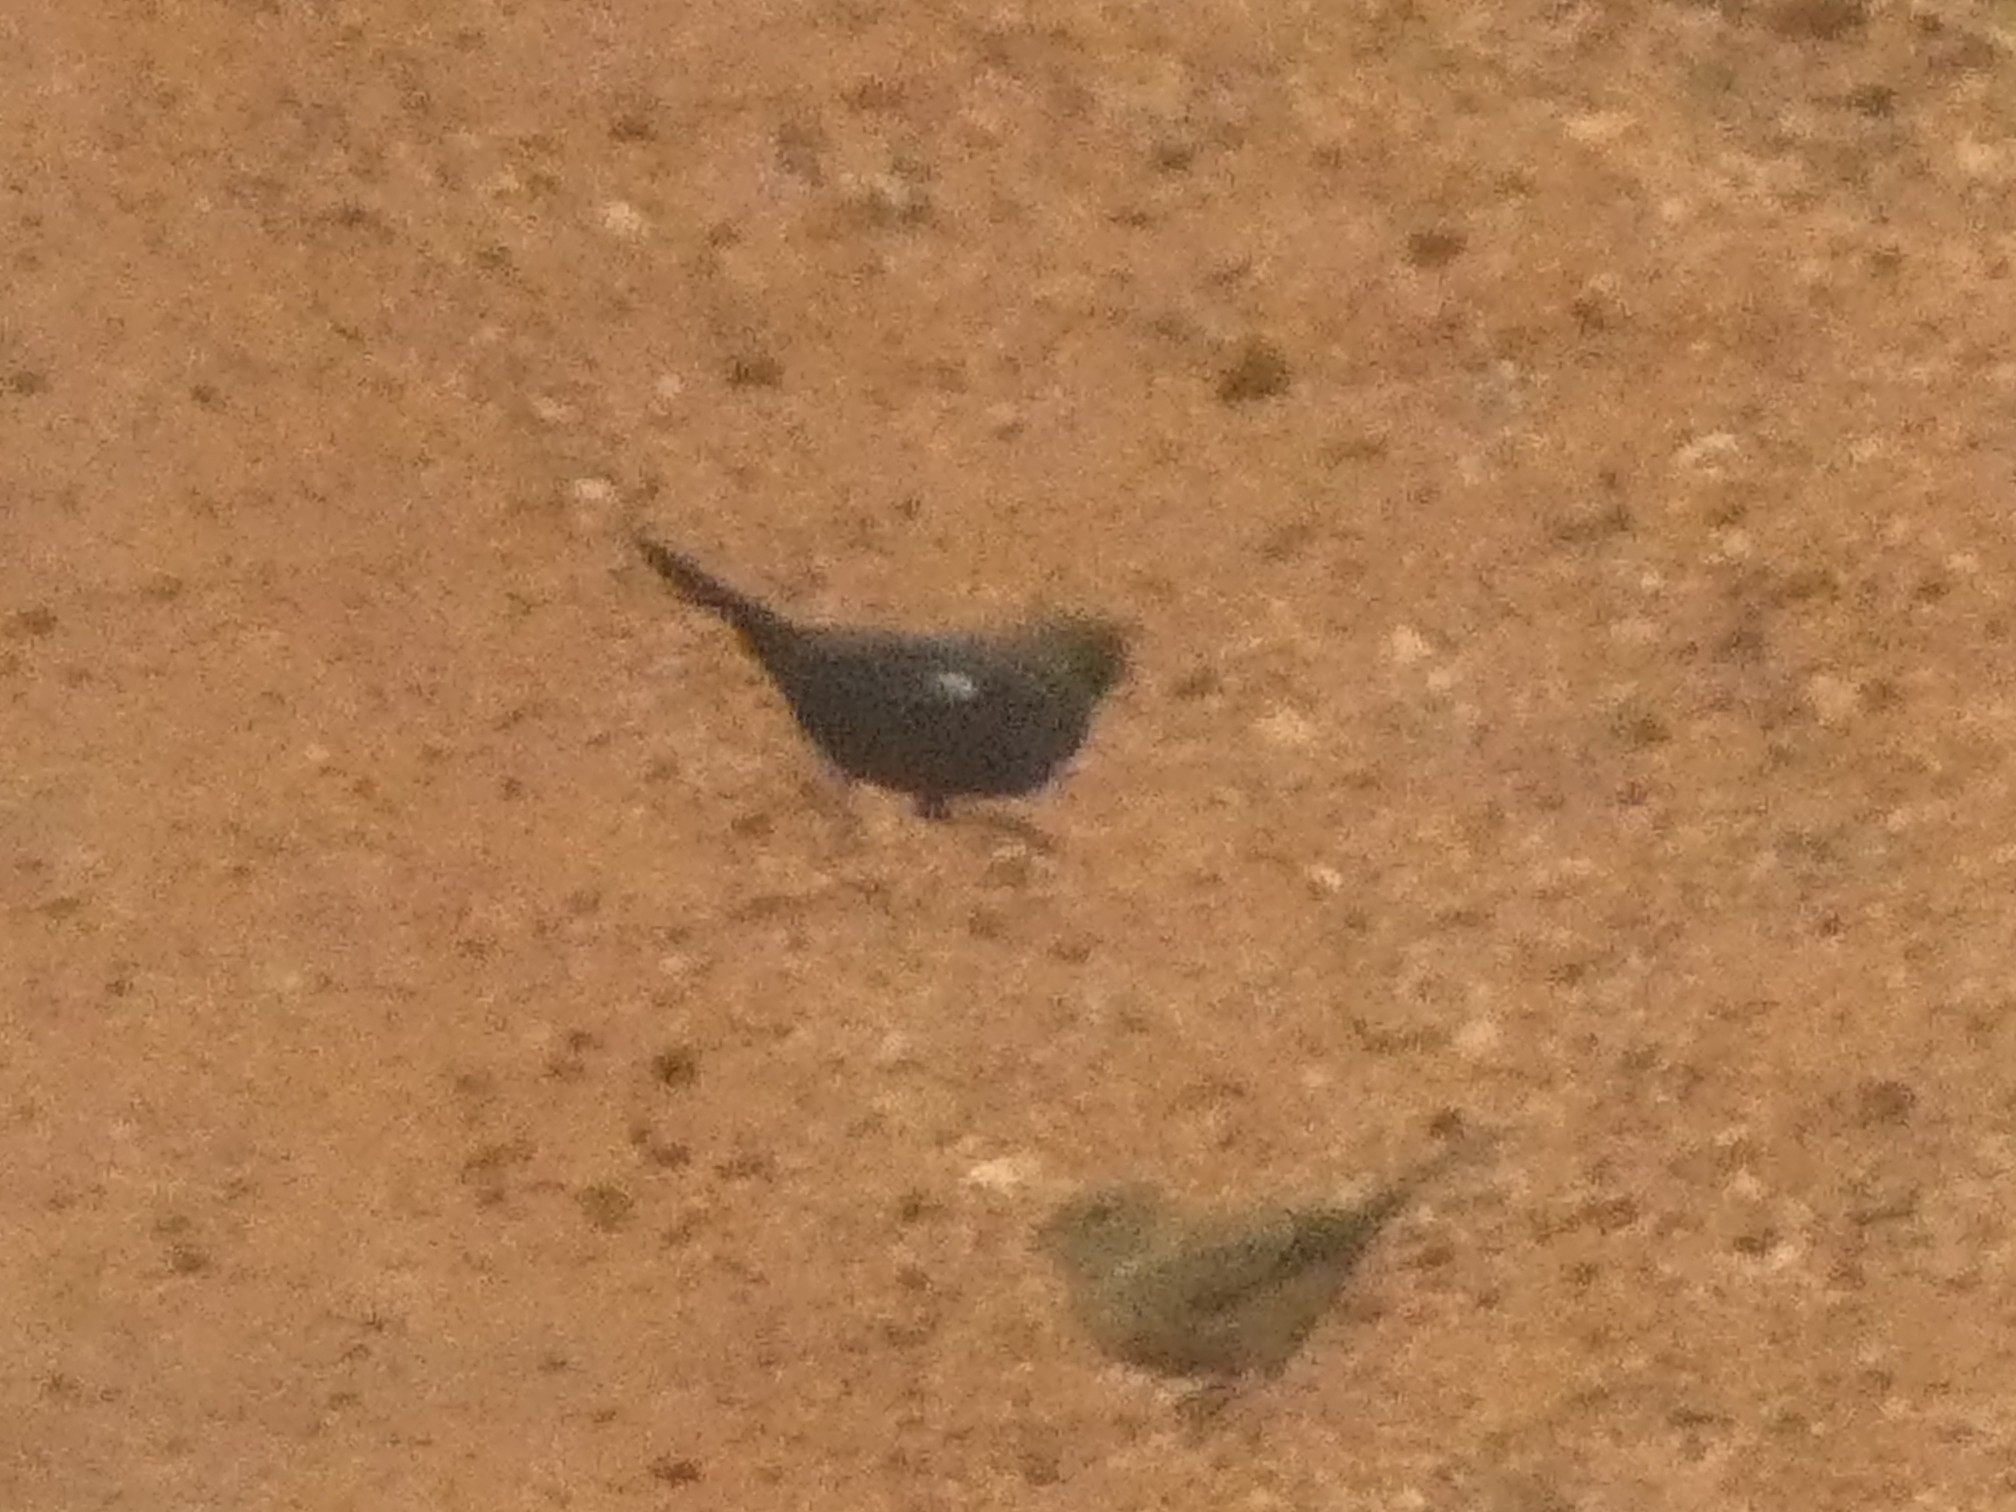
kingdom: Animalia
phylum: Chordata
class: Aves
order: Passeriformes
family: Thraupidae
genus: Volatinia
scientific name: Volatinia jacarina
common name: Blue-black grassquit
